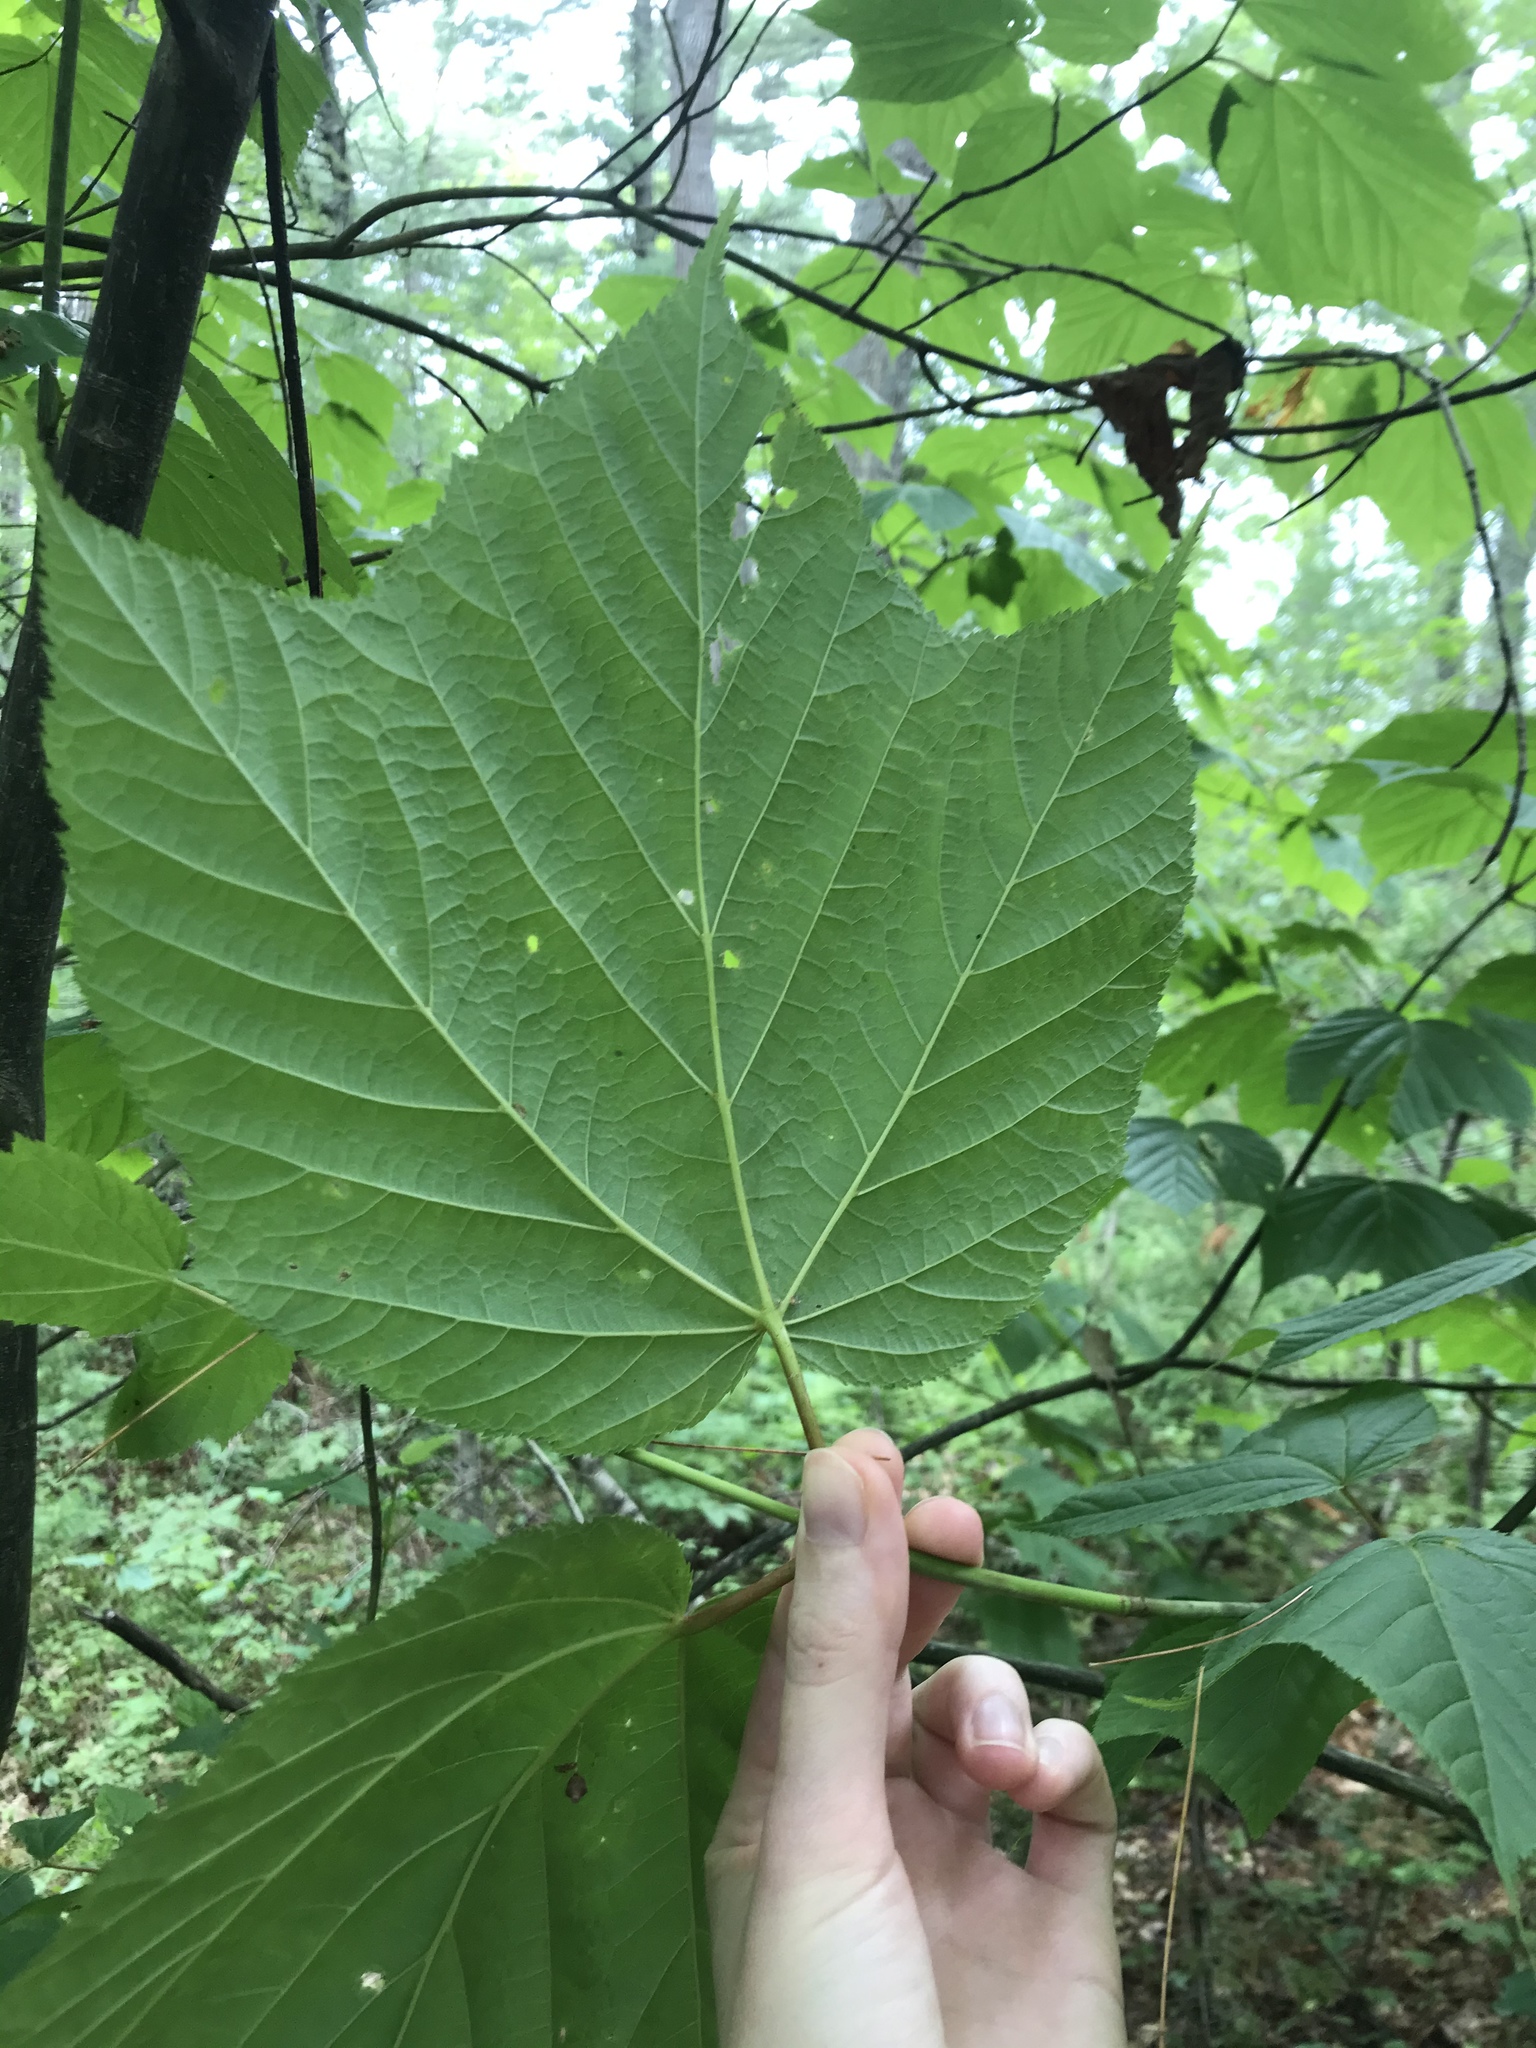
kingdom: Plantae
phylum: Tracheophyta
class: Magnoliopsida
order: Sapindales
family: Sapindaceae
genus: Acer
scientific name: Acer pensylvanicum
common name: Moosewood
